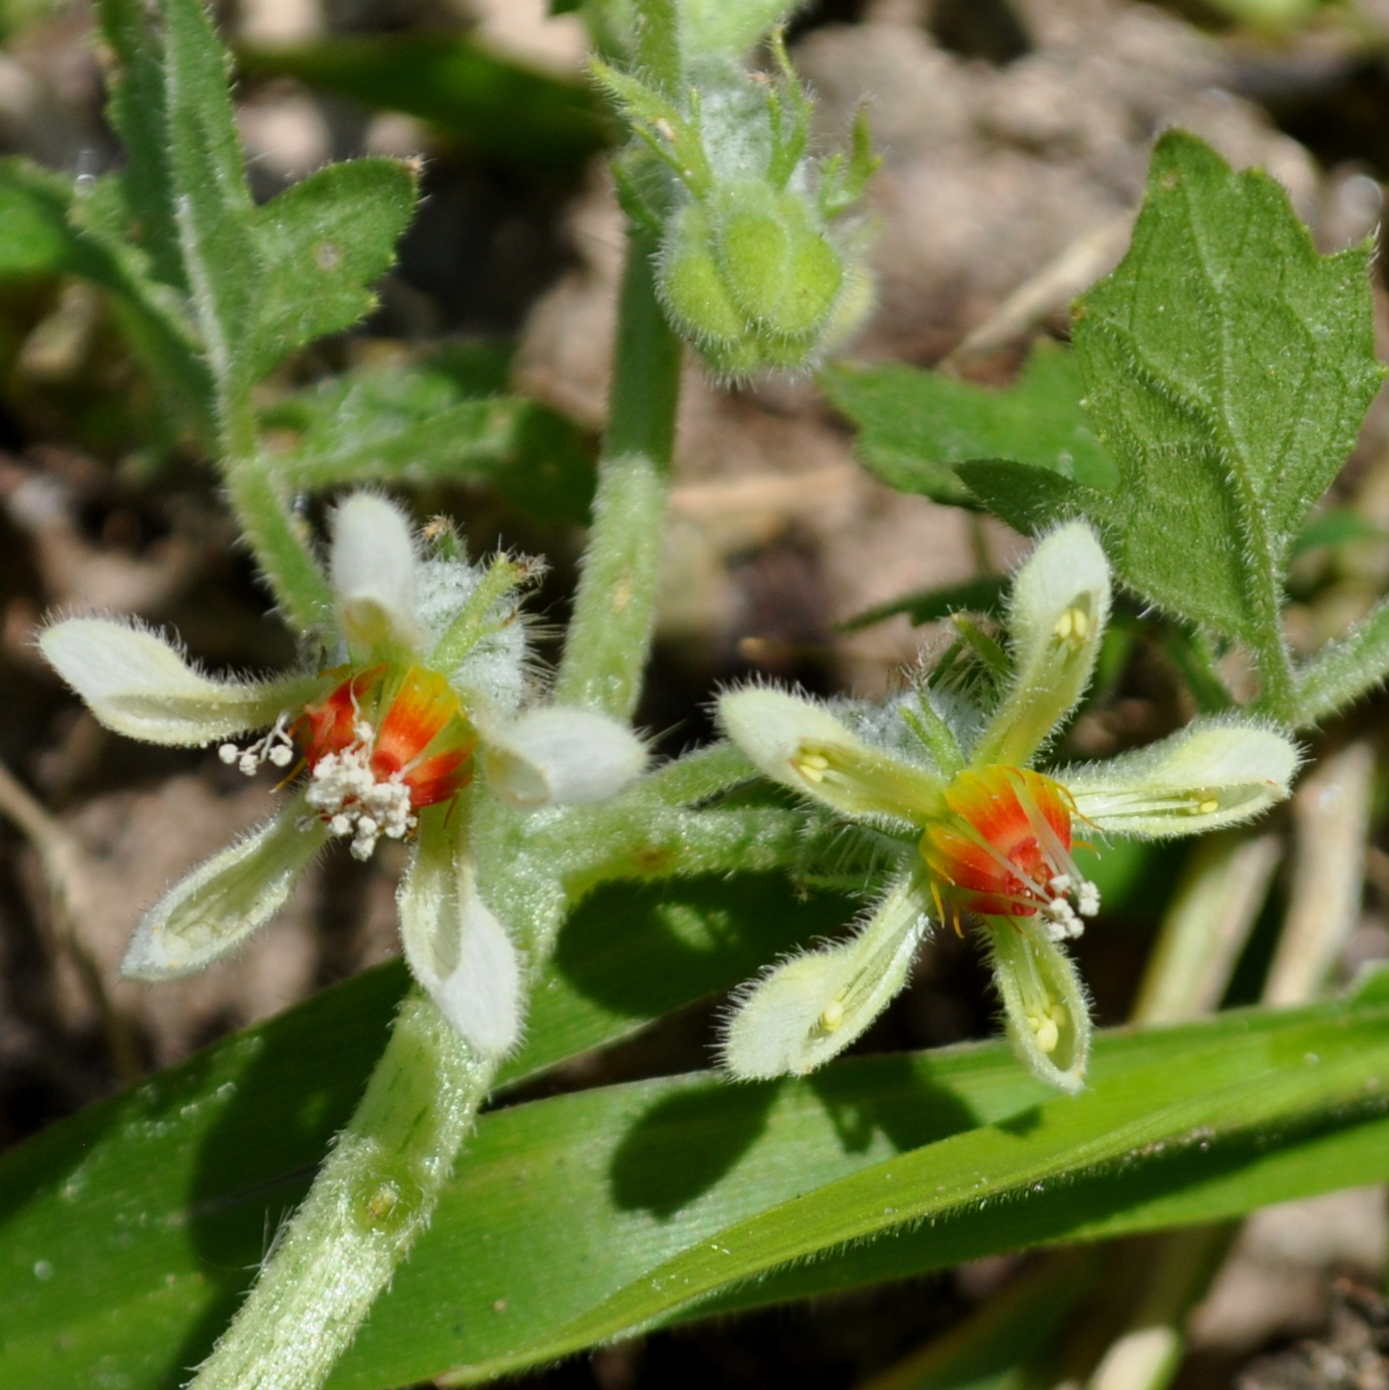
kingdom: Plantae
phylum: Tracheophyta
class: Magnoliopsida
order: Cornales
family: Loasaceae
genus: Blumenbachia
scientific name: Blumenbachia latifolia
